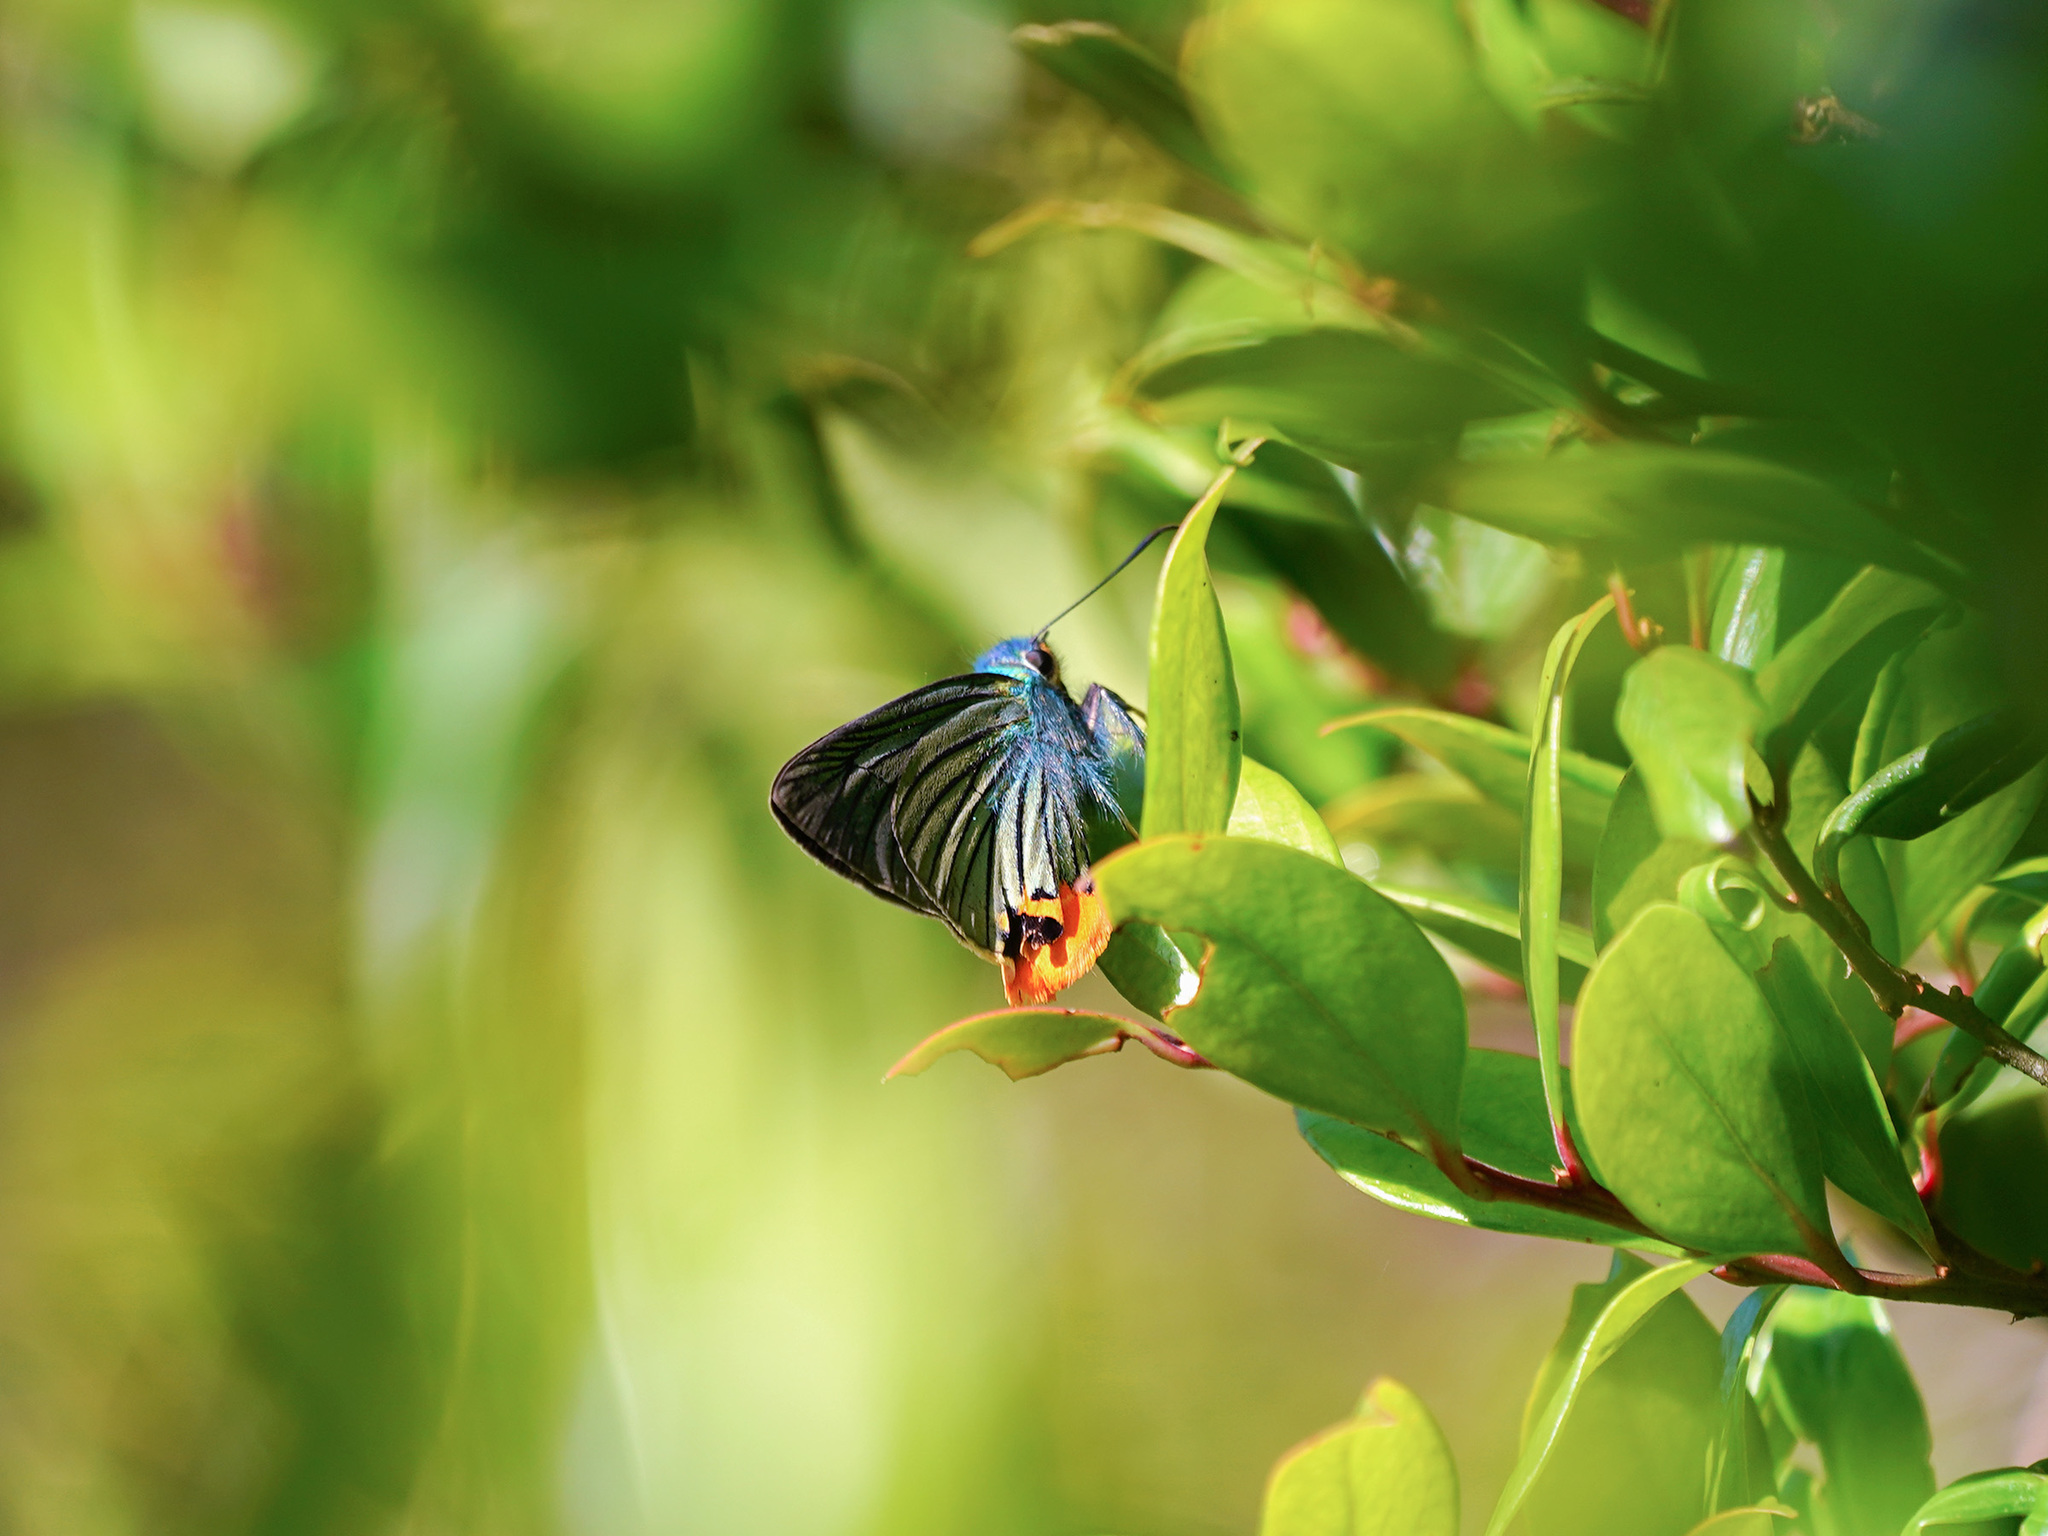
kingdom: Animalia
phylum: Arthropoda
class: Insecta
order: Lepidoptera
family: Hesperiidae
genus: Choaspes
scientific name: Choaspes benjaminii
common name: Indian awlking
